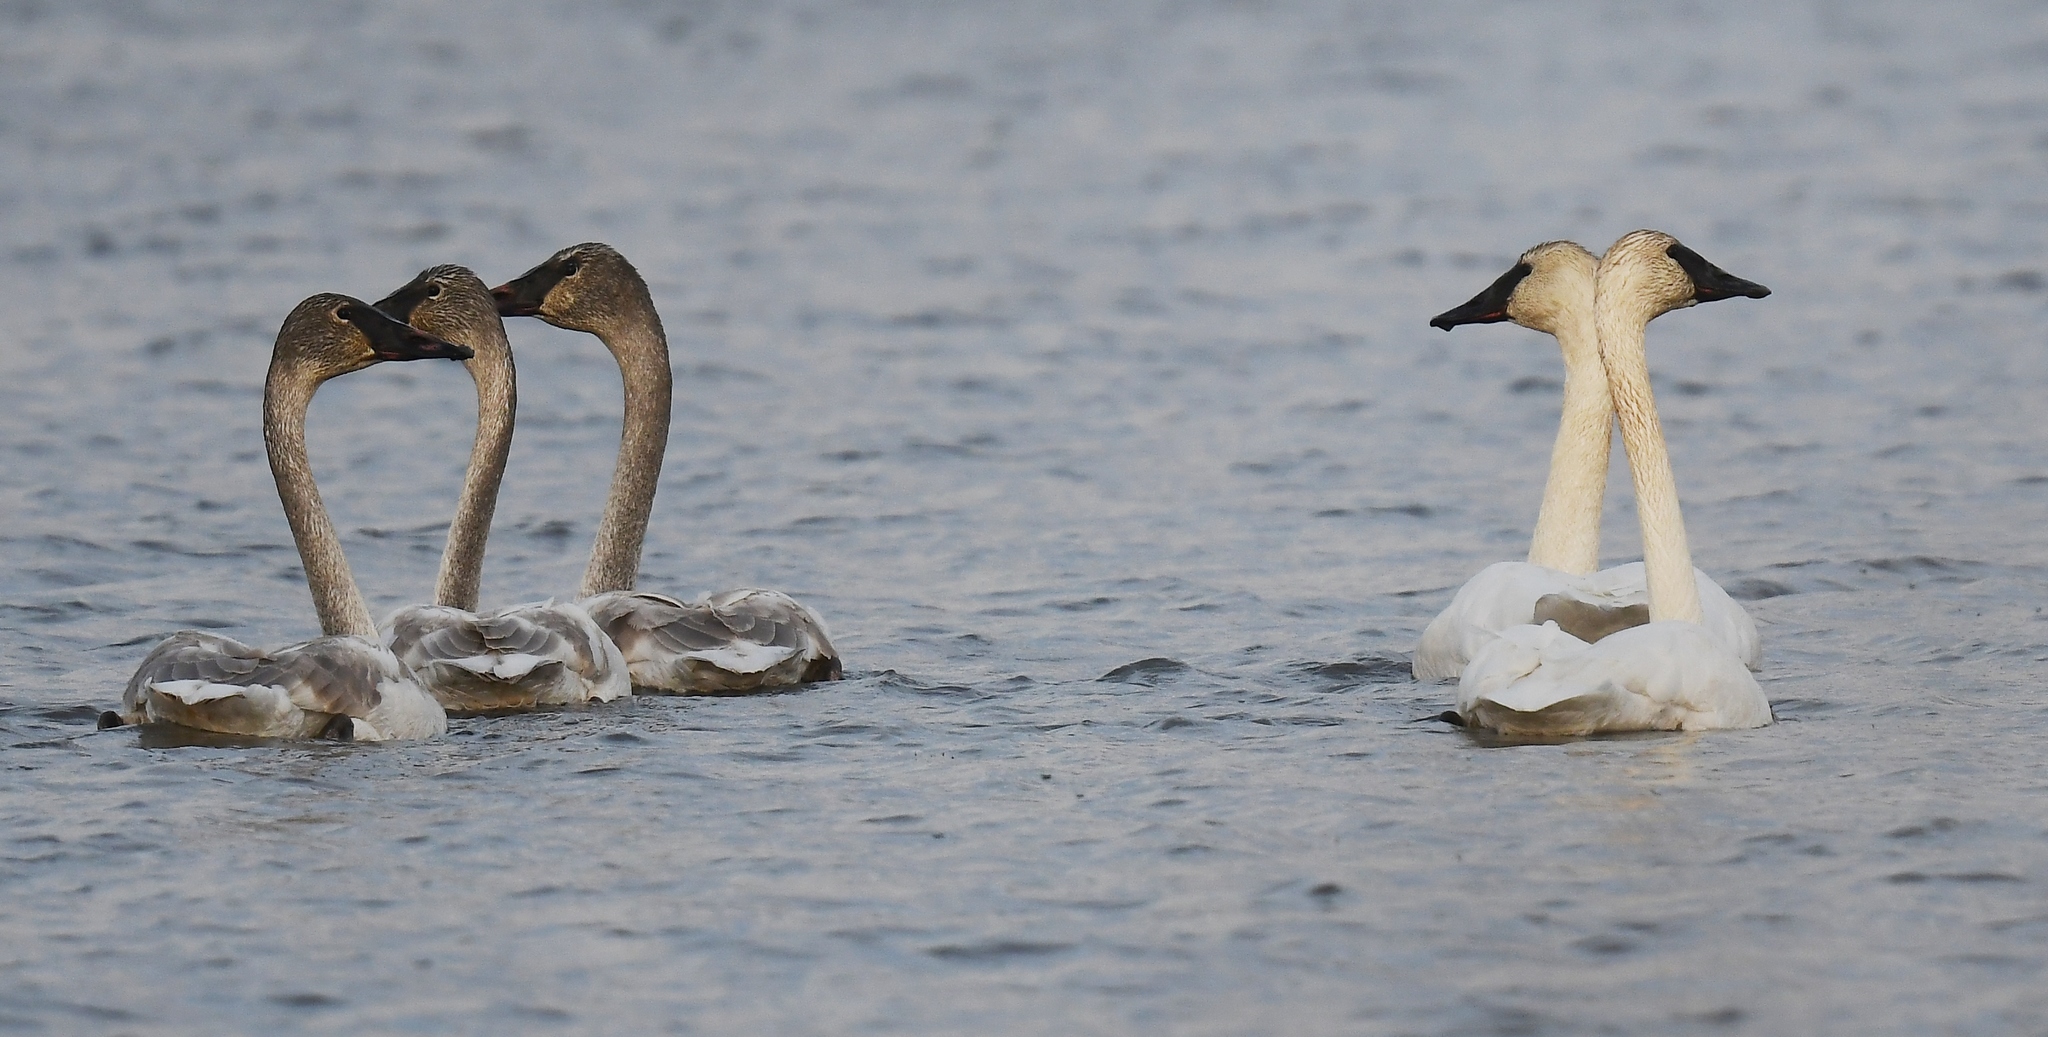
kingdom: Animalia
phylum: Chordata
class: Aves
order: Anseriformes
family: Anatidae
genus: Cygnus
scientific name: Cygnus buccinator
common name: Trumpeter swan
